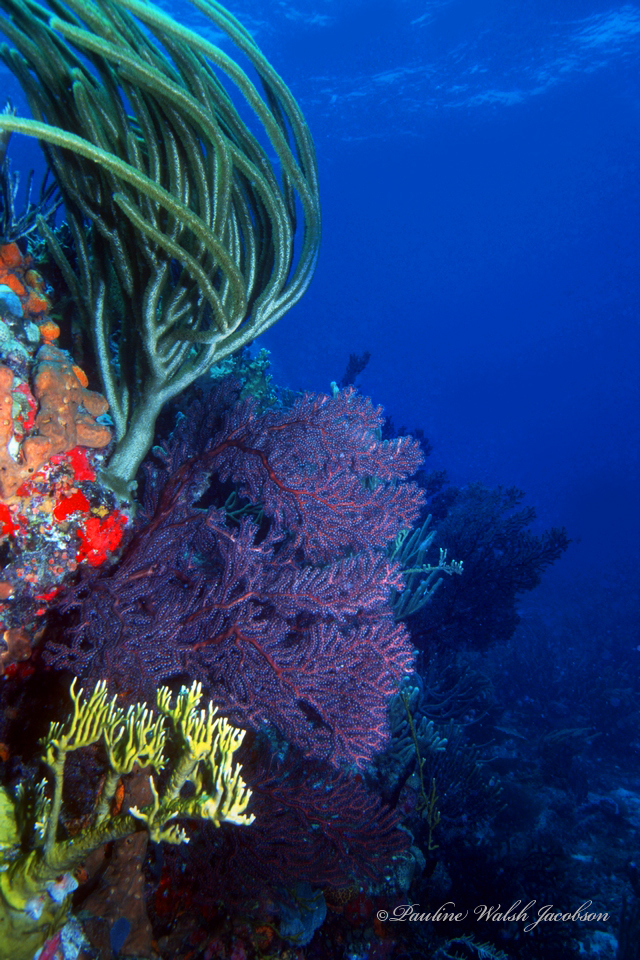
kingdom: Animalia
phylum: Cnidaria
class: Anthozoa
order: Malacalcyonacea
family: Melithaeidae
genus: Iciligorgia
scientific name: Iciligorgia schrammi
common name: Black sea fan
